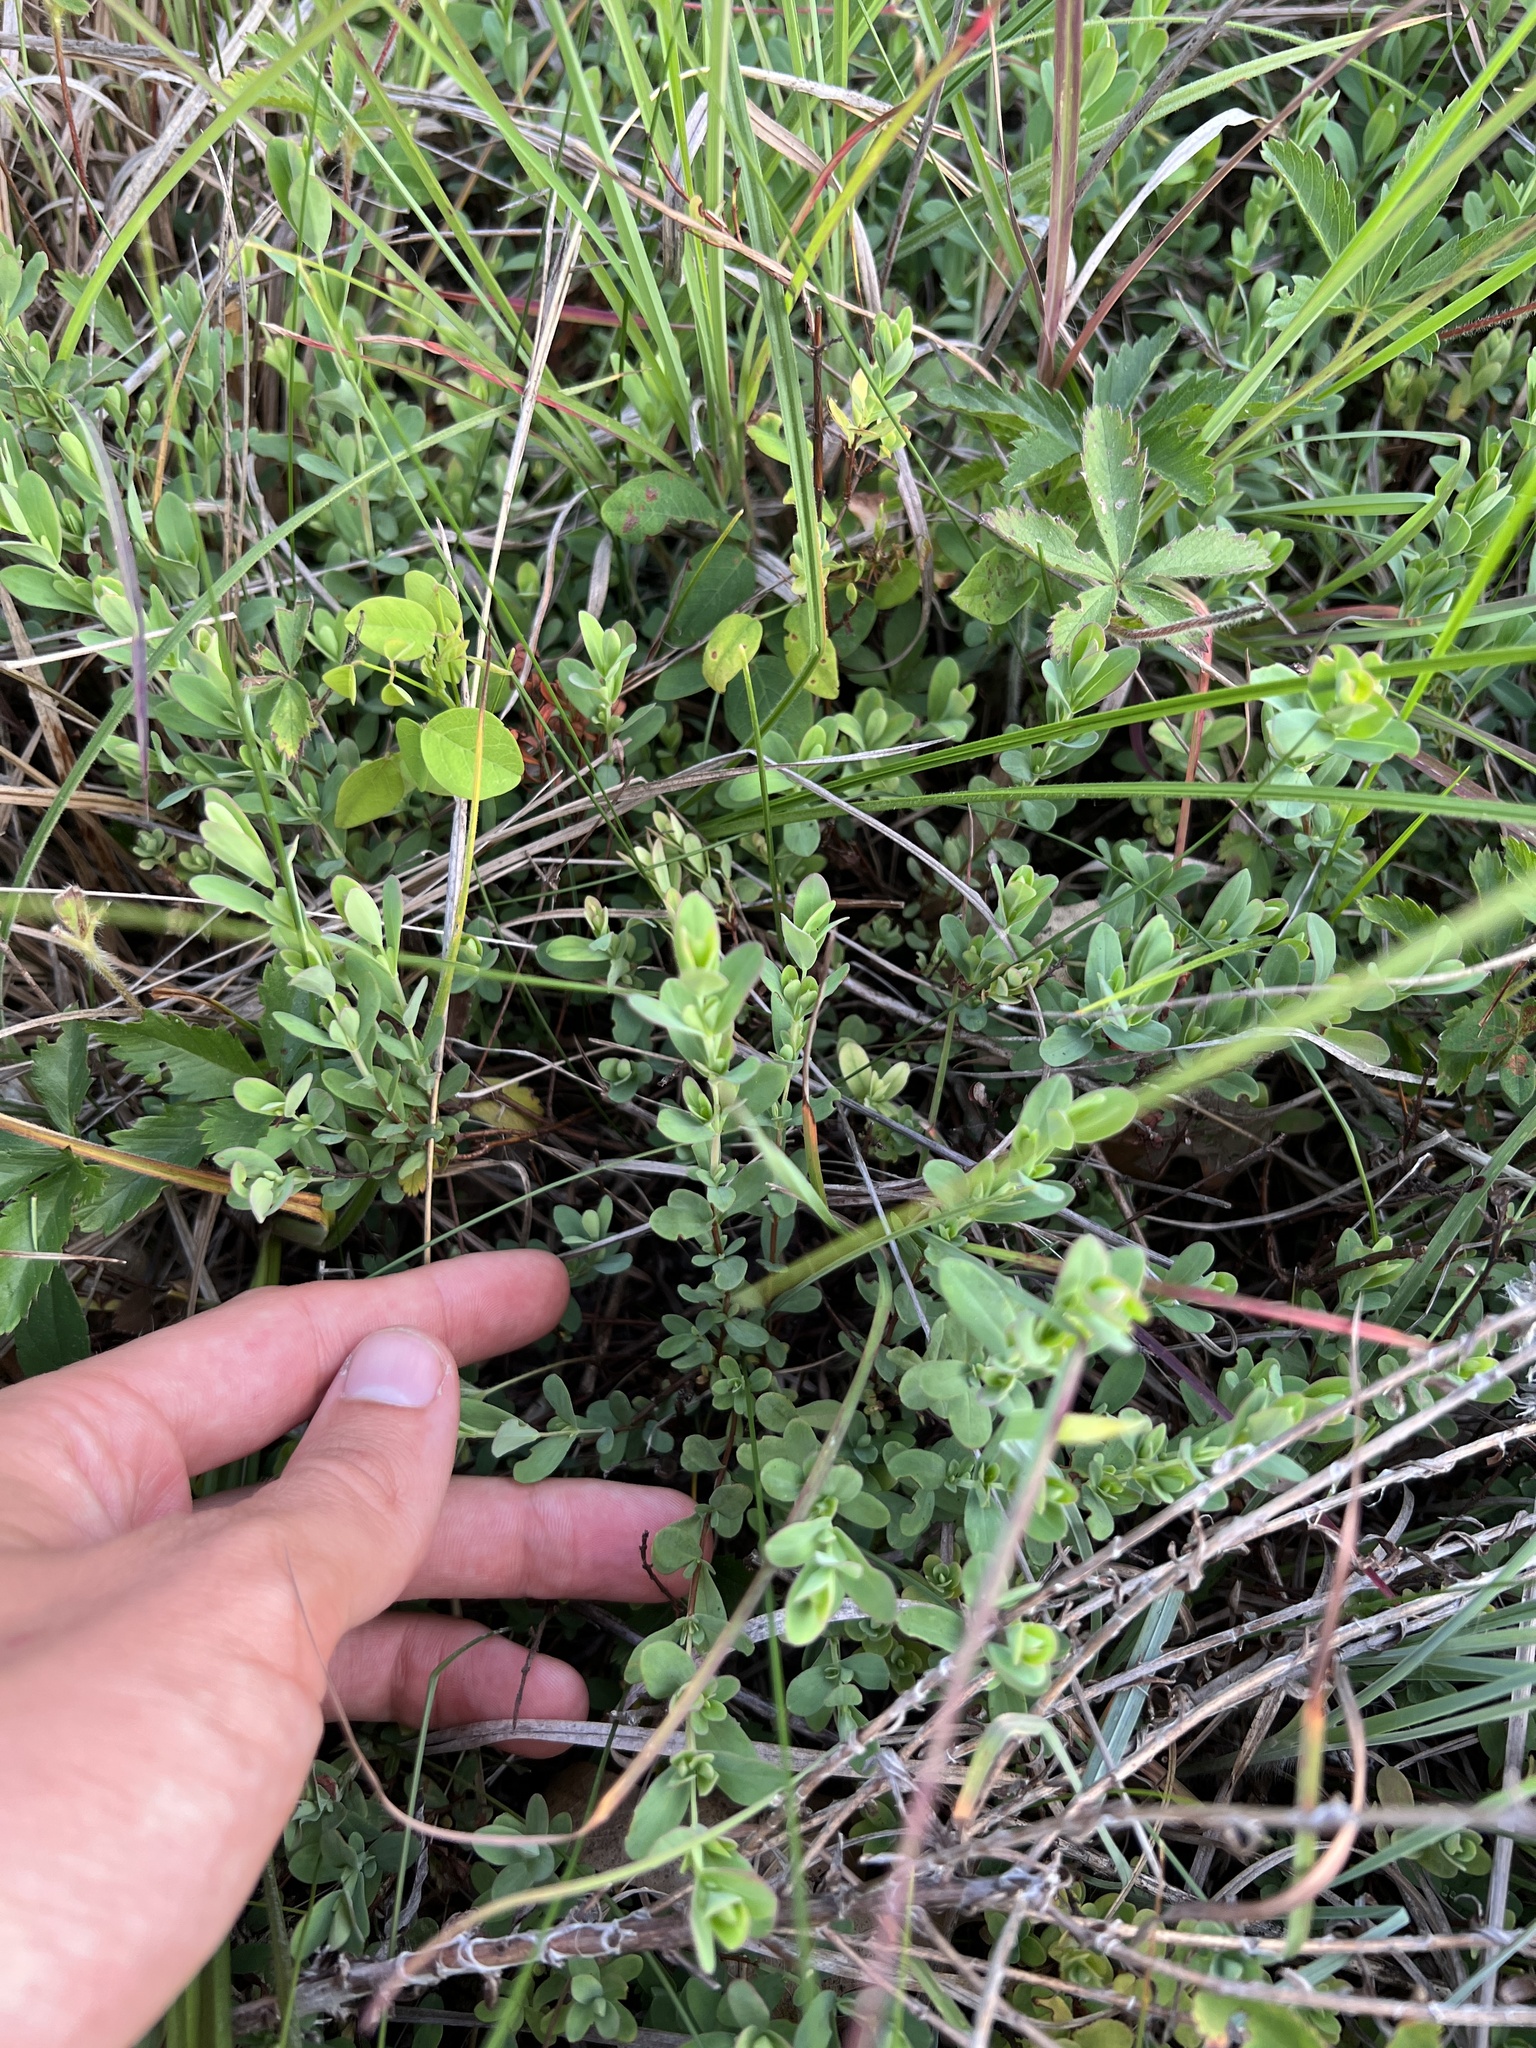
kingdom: Plantae
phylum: Tracheophyta
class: Magnoliopsida
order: Malpighiales
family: Hypericaceae
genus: Hypericum
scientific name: Hypericum hypericoides
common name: St. andrew's cross
